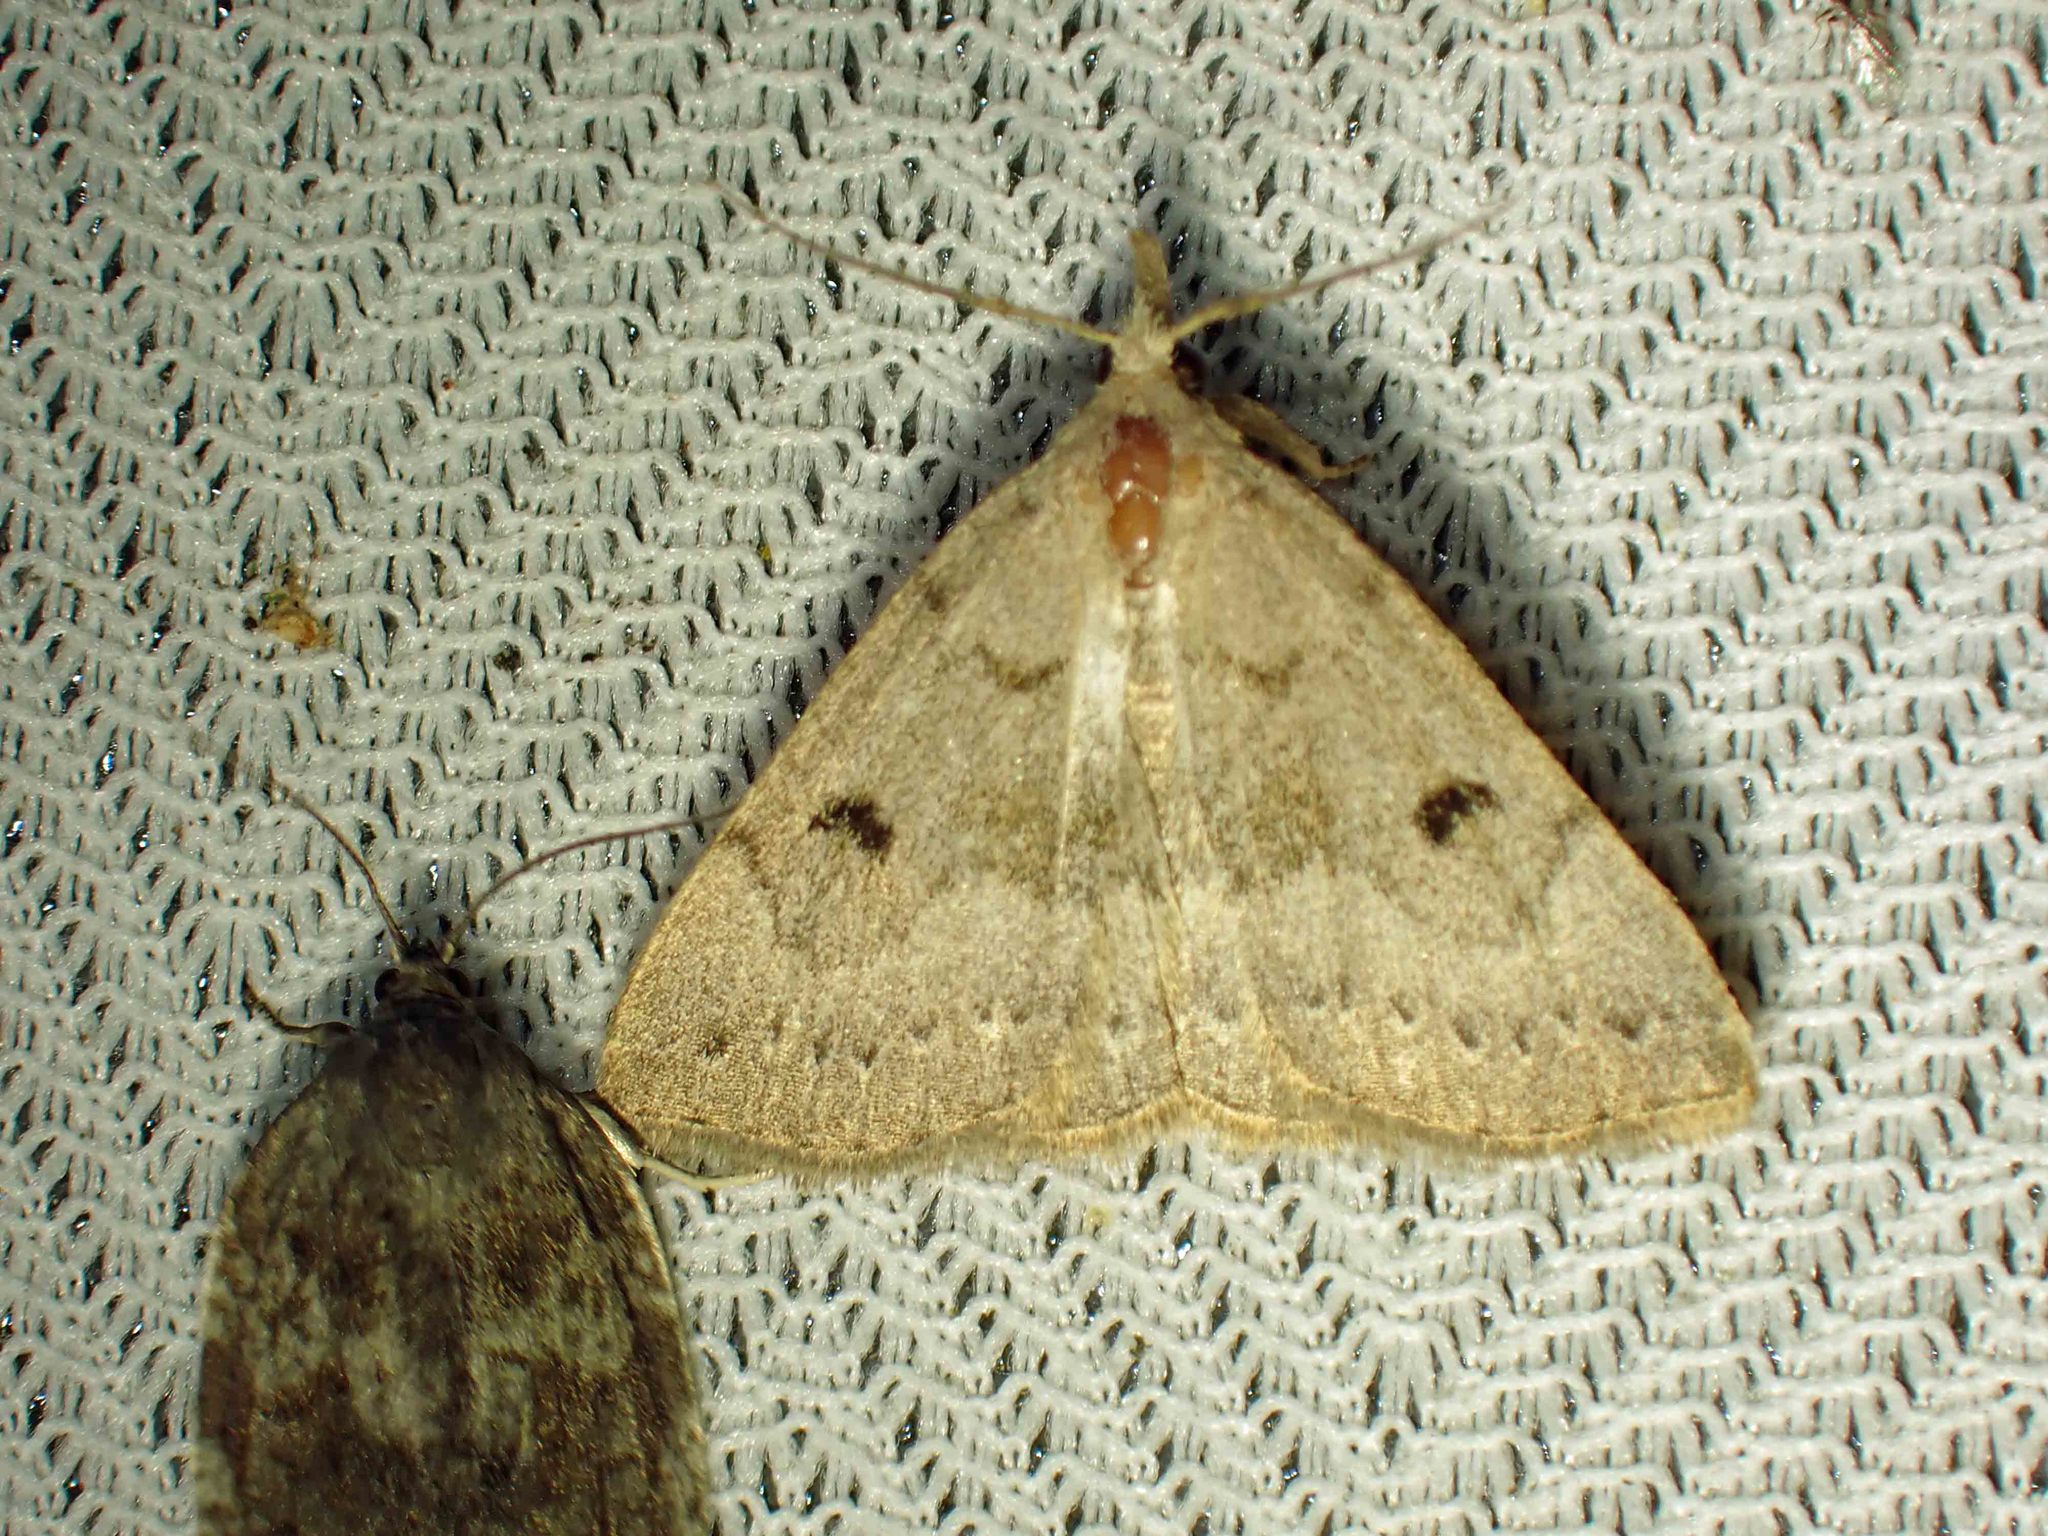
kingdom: Animalia
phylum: Arthropoda
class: Insecta
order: Lepidoptera
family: Erebidae
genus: Macrochilo
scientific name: Macrochilo morbidalis
